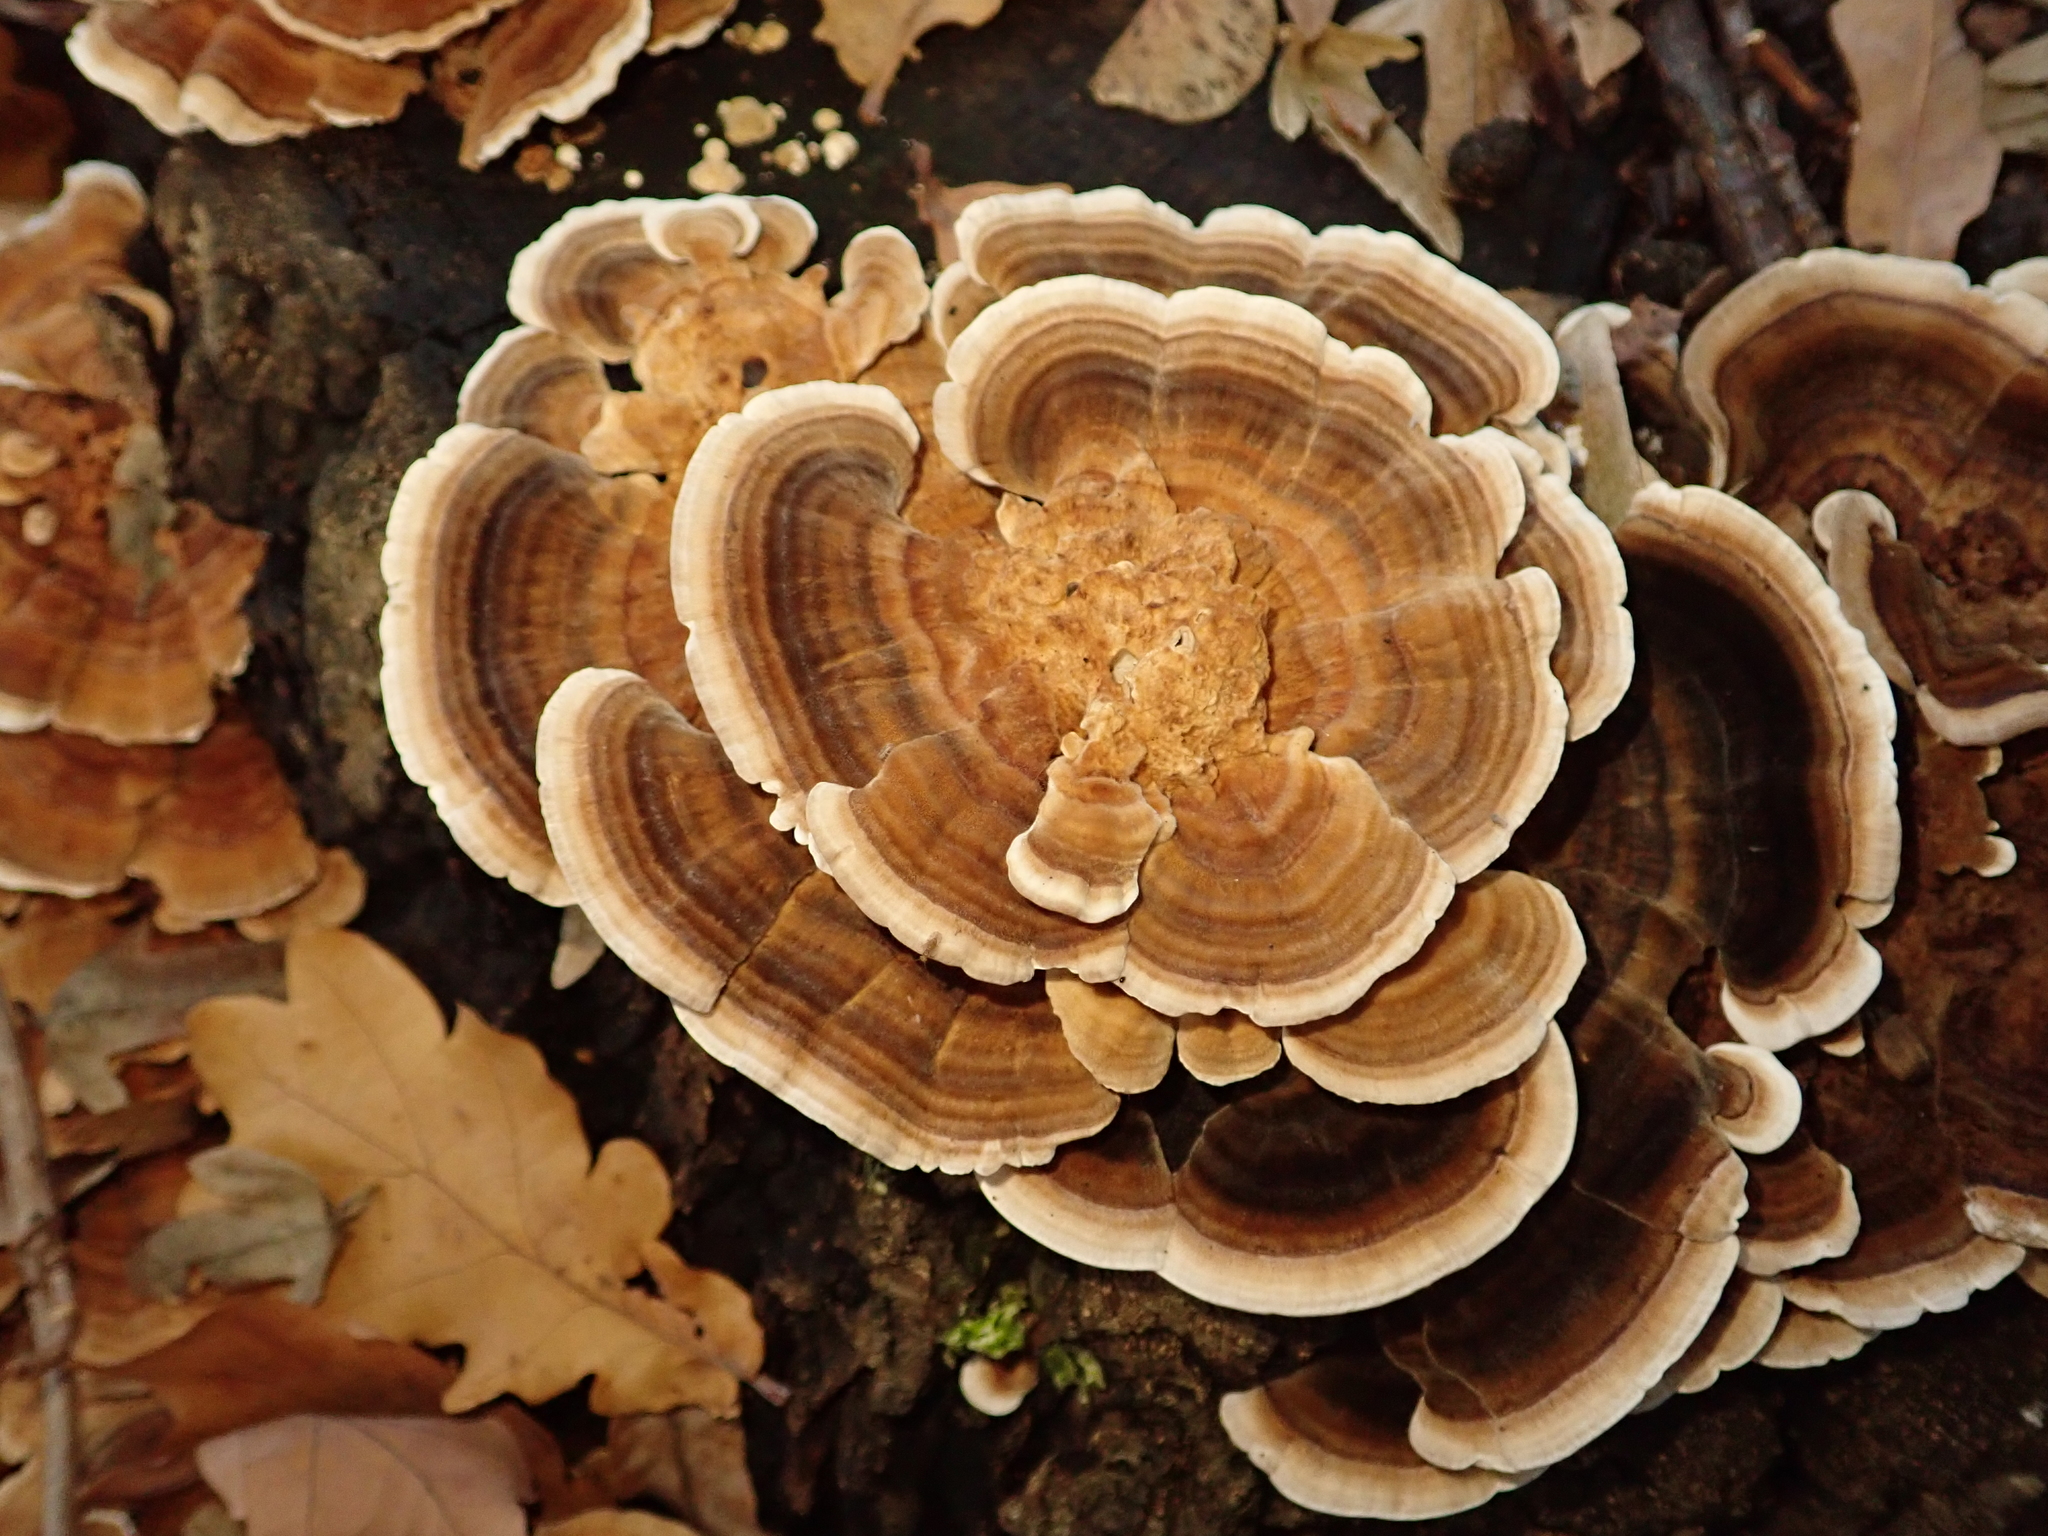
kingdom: Fungi
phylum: Basidiomycota
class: Agaricomycetes
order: Polyporales
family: Polyporaceae
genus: Trametes
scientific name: Trametes versicolor
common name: Turkeytail
